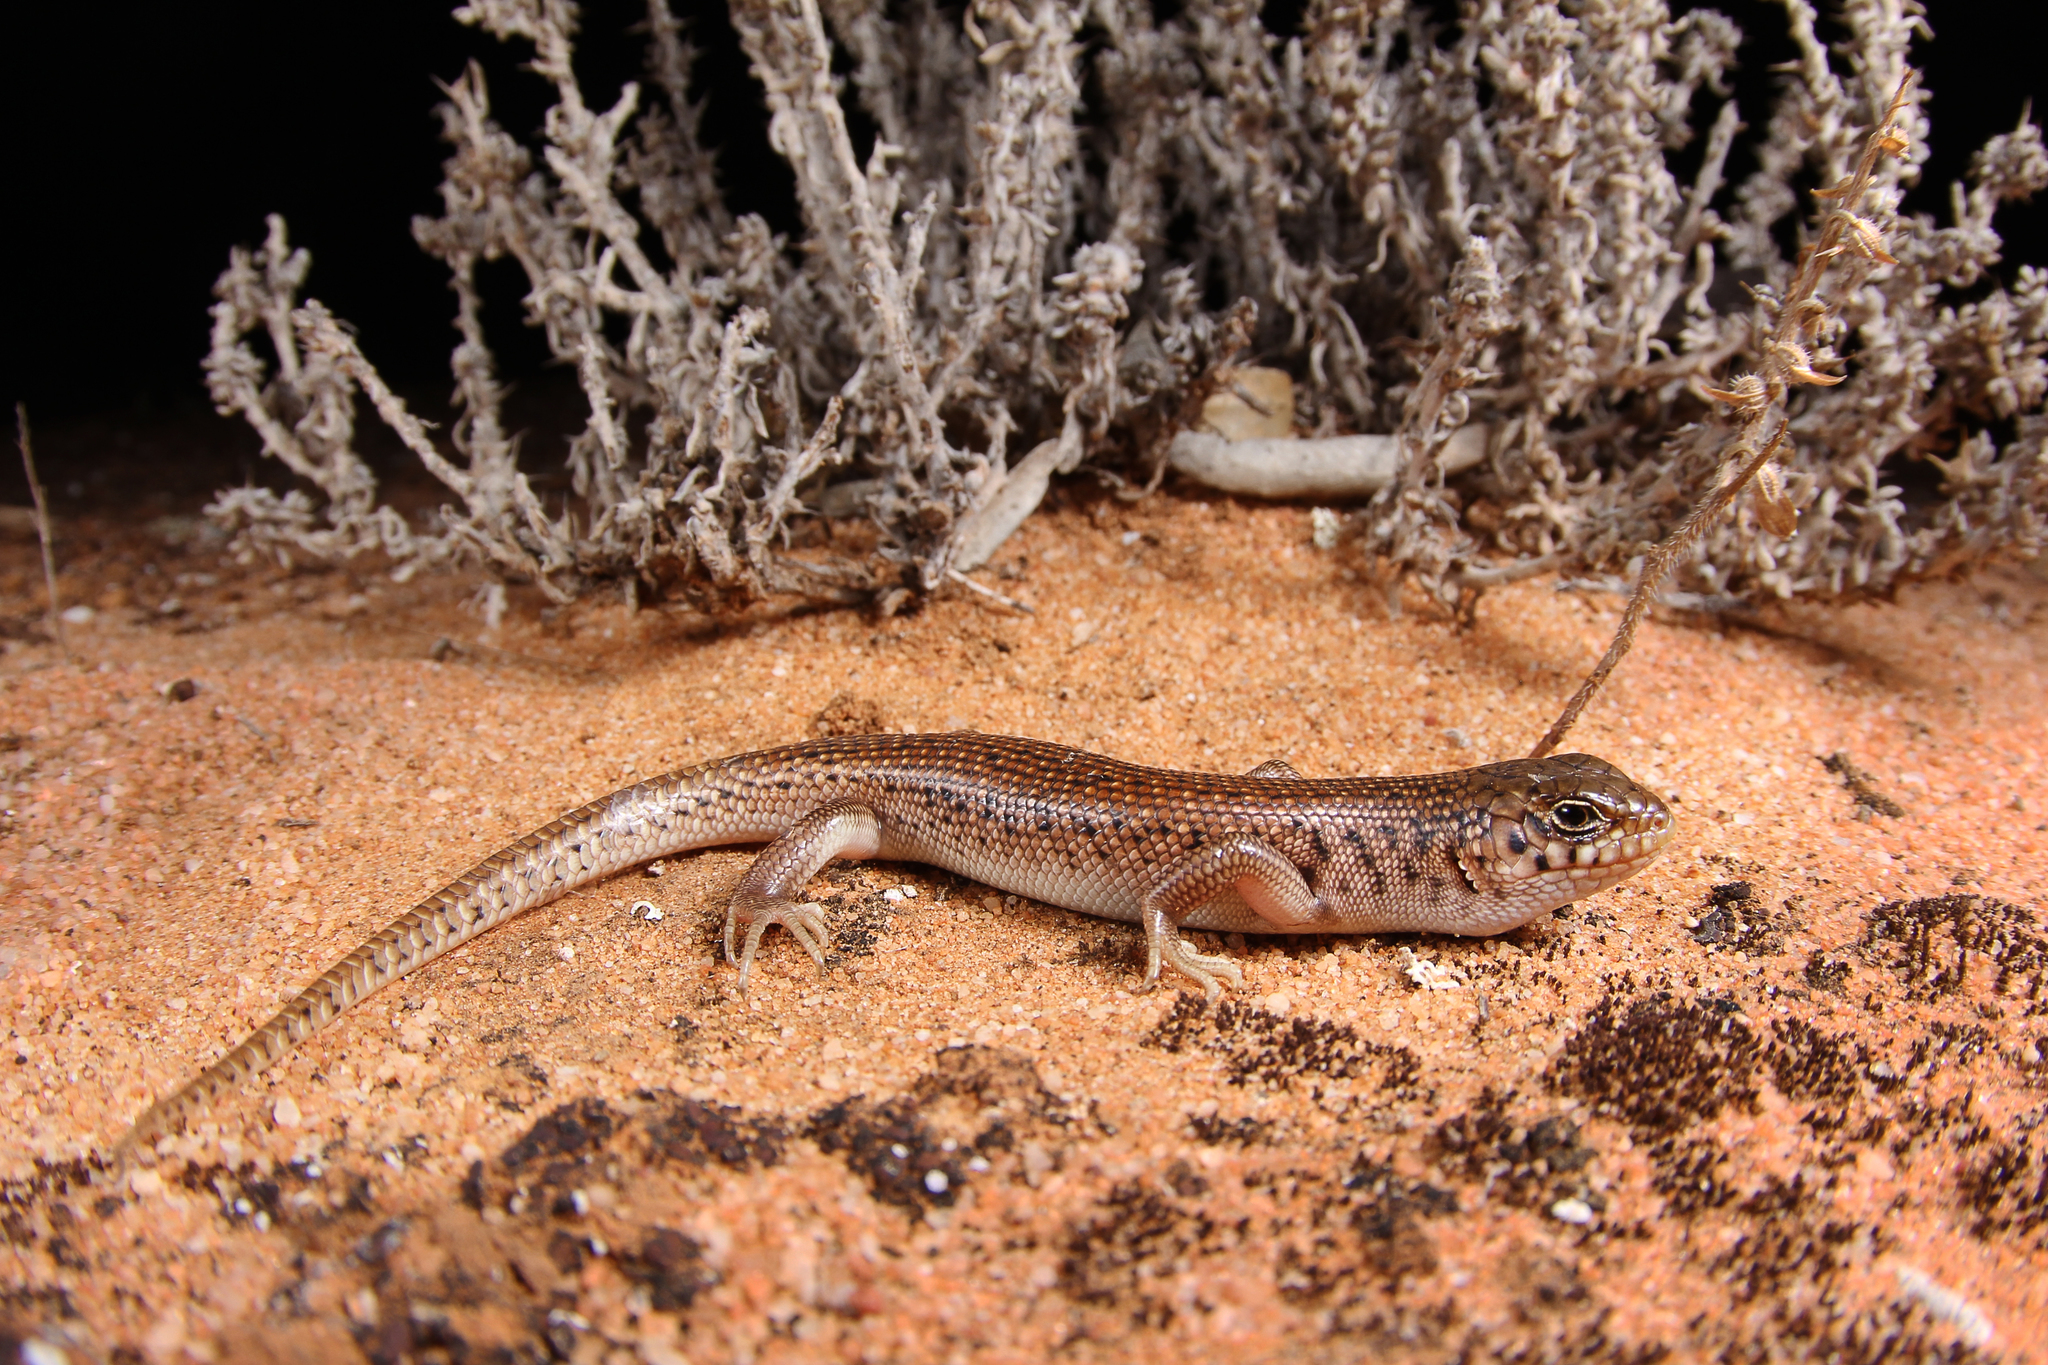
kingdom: Animalia
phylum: Chordata
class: Squamata
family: Scincidae
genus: Liopholis
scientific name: Liopholis inornata
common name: Desert skink
